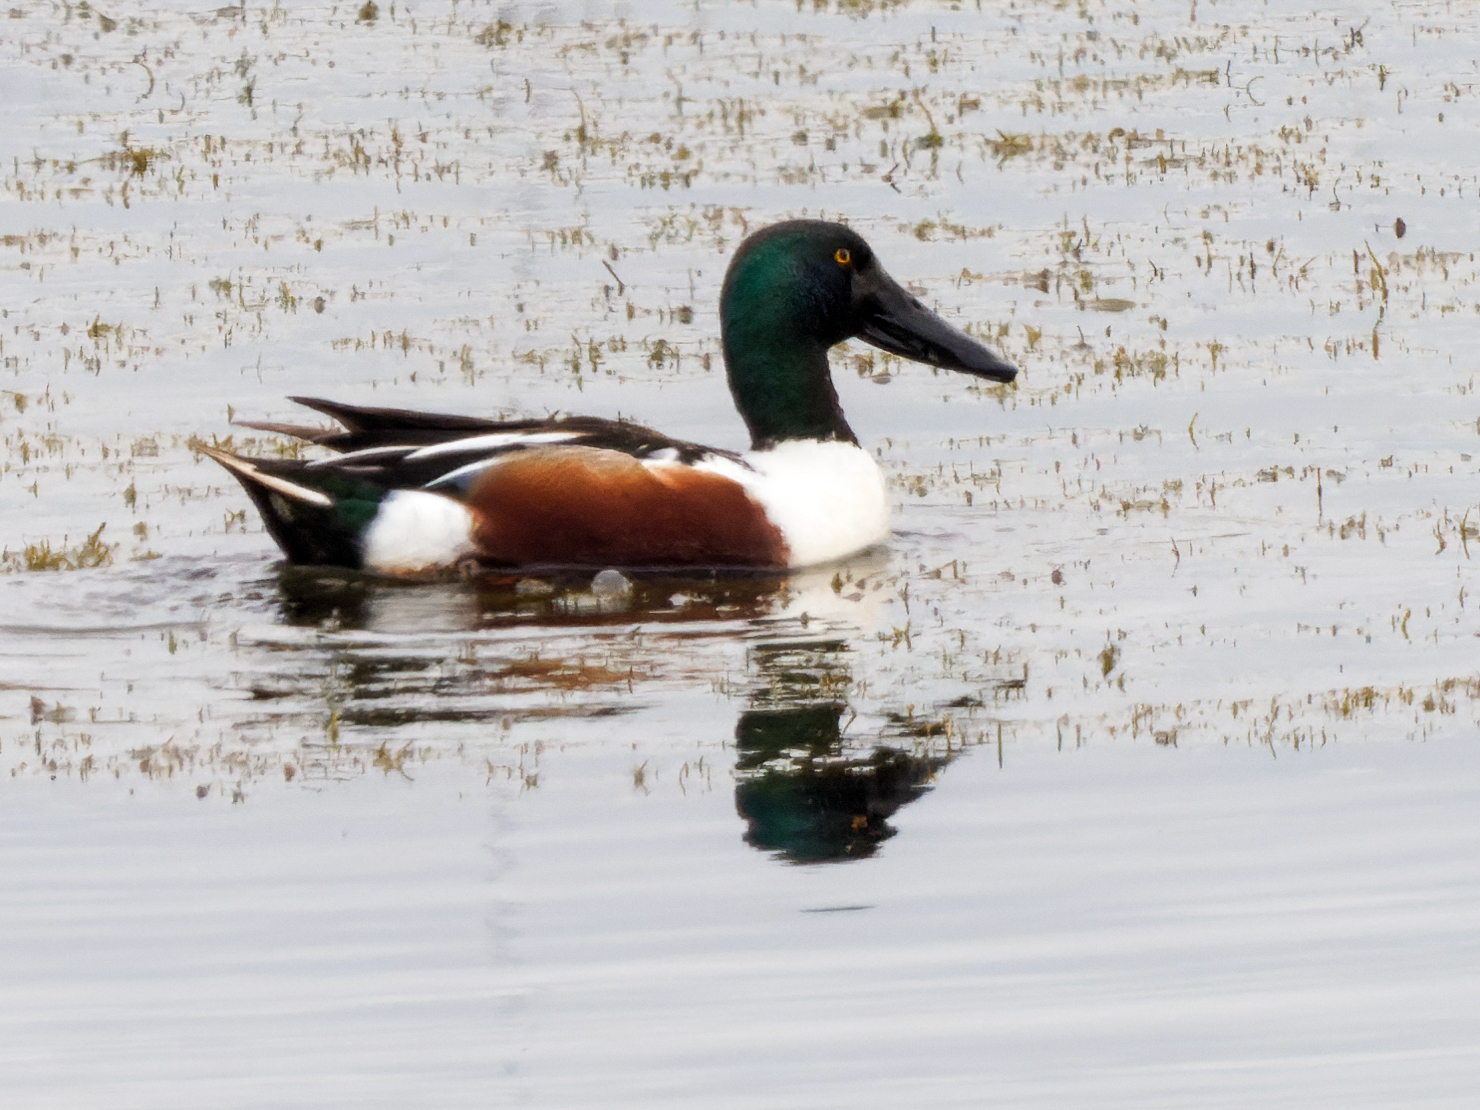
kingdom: Animalia
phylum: Chordata
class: Aves
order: Anseriformes
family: Anatidae
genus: Spatula
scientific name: Spatula clypeata
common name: Northern shoveler
